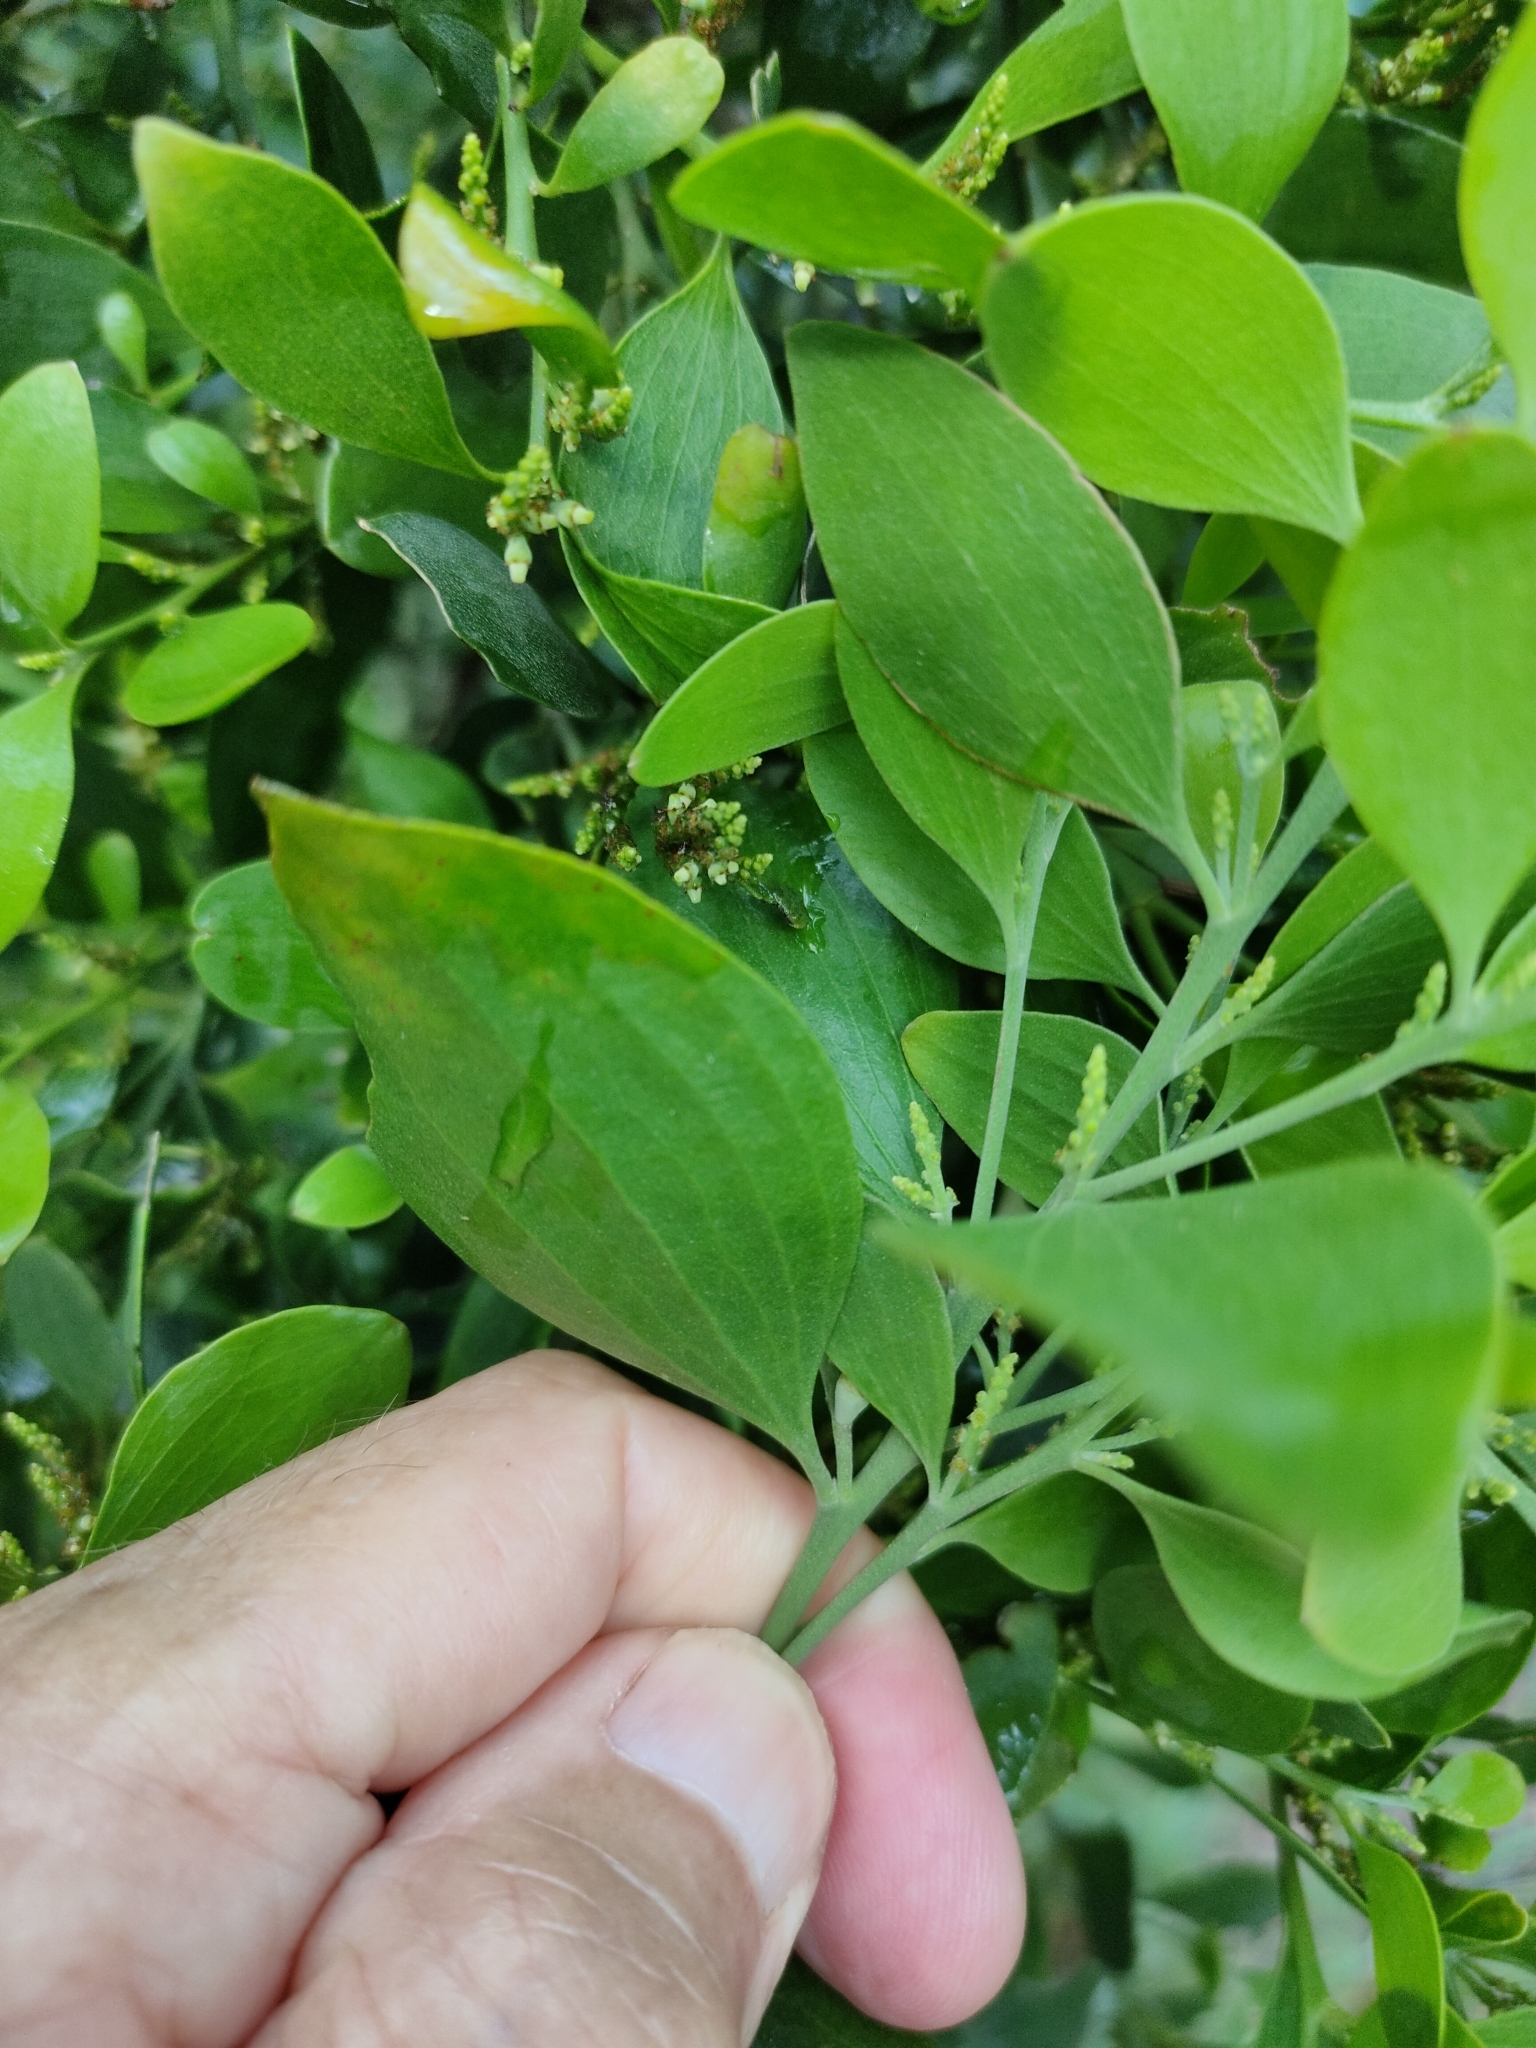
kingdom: Plantae
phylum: Tracheophyta
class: Magnoliopsida
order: Santalales
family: Santalaceae
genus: Exocarpos
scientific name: Exocarpos latifolius
